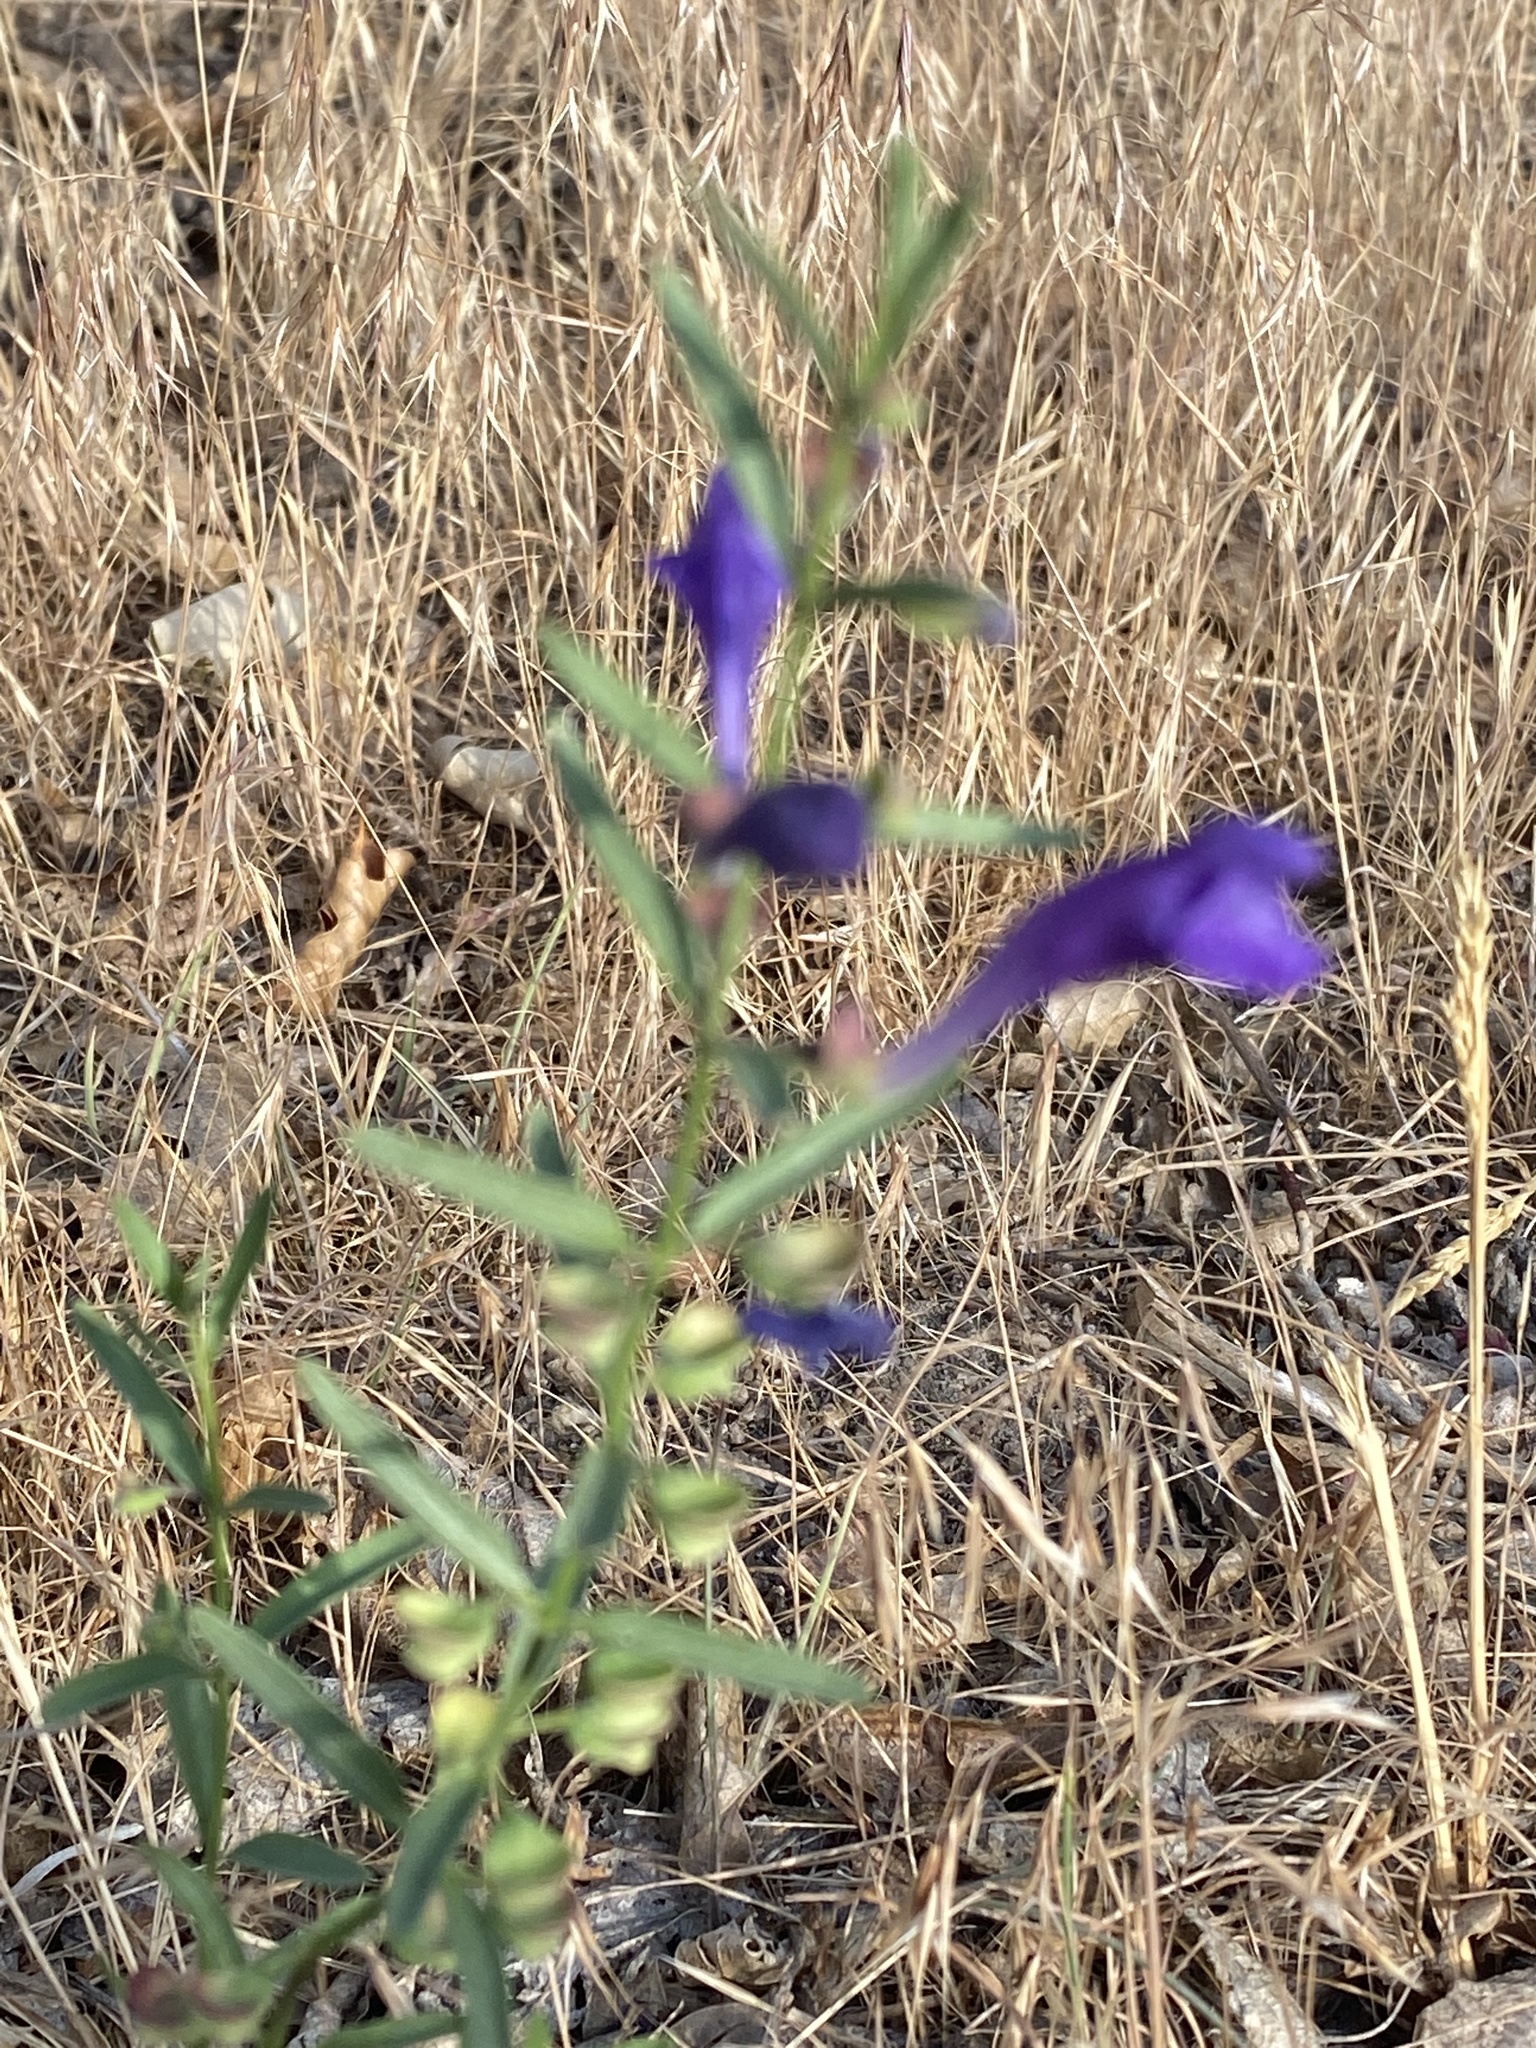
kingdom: Plantae
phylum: Tracheophyta
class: Magnoliopsida
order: Lamiales
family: Lamiaceae
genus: Scutellaria
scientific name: Scutellaria siphocampyloides
